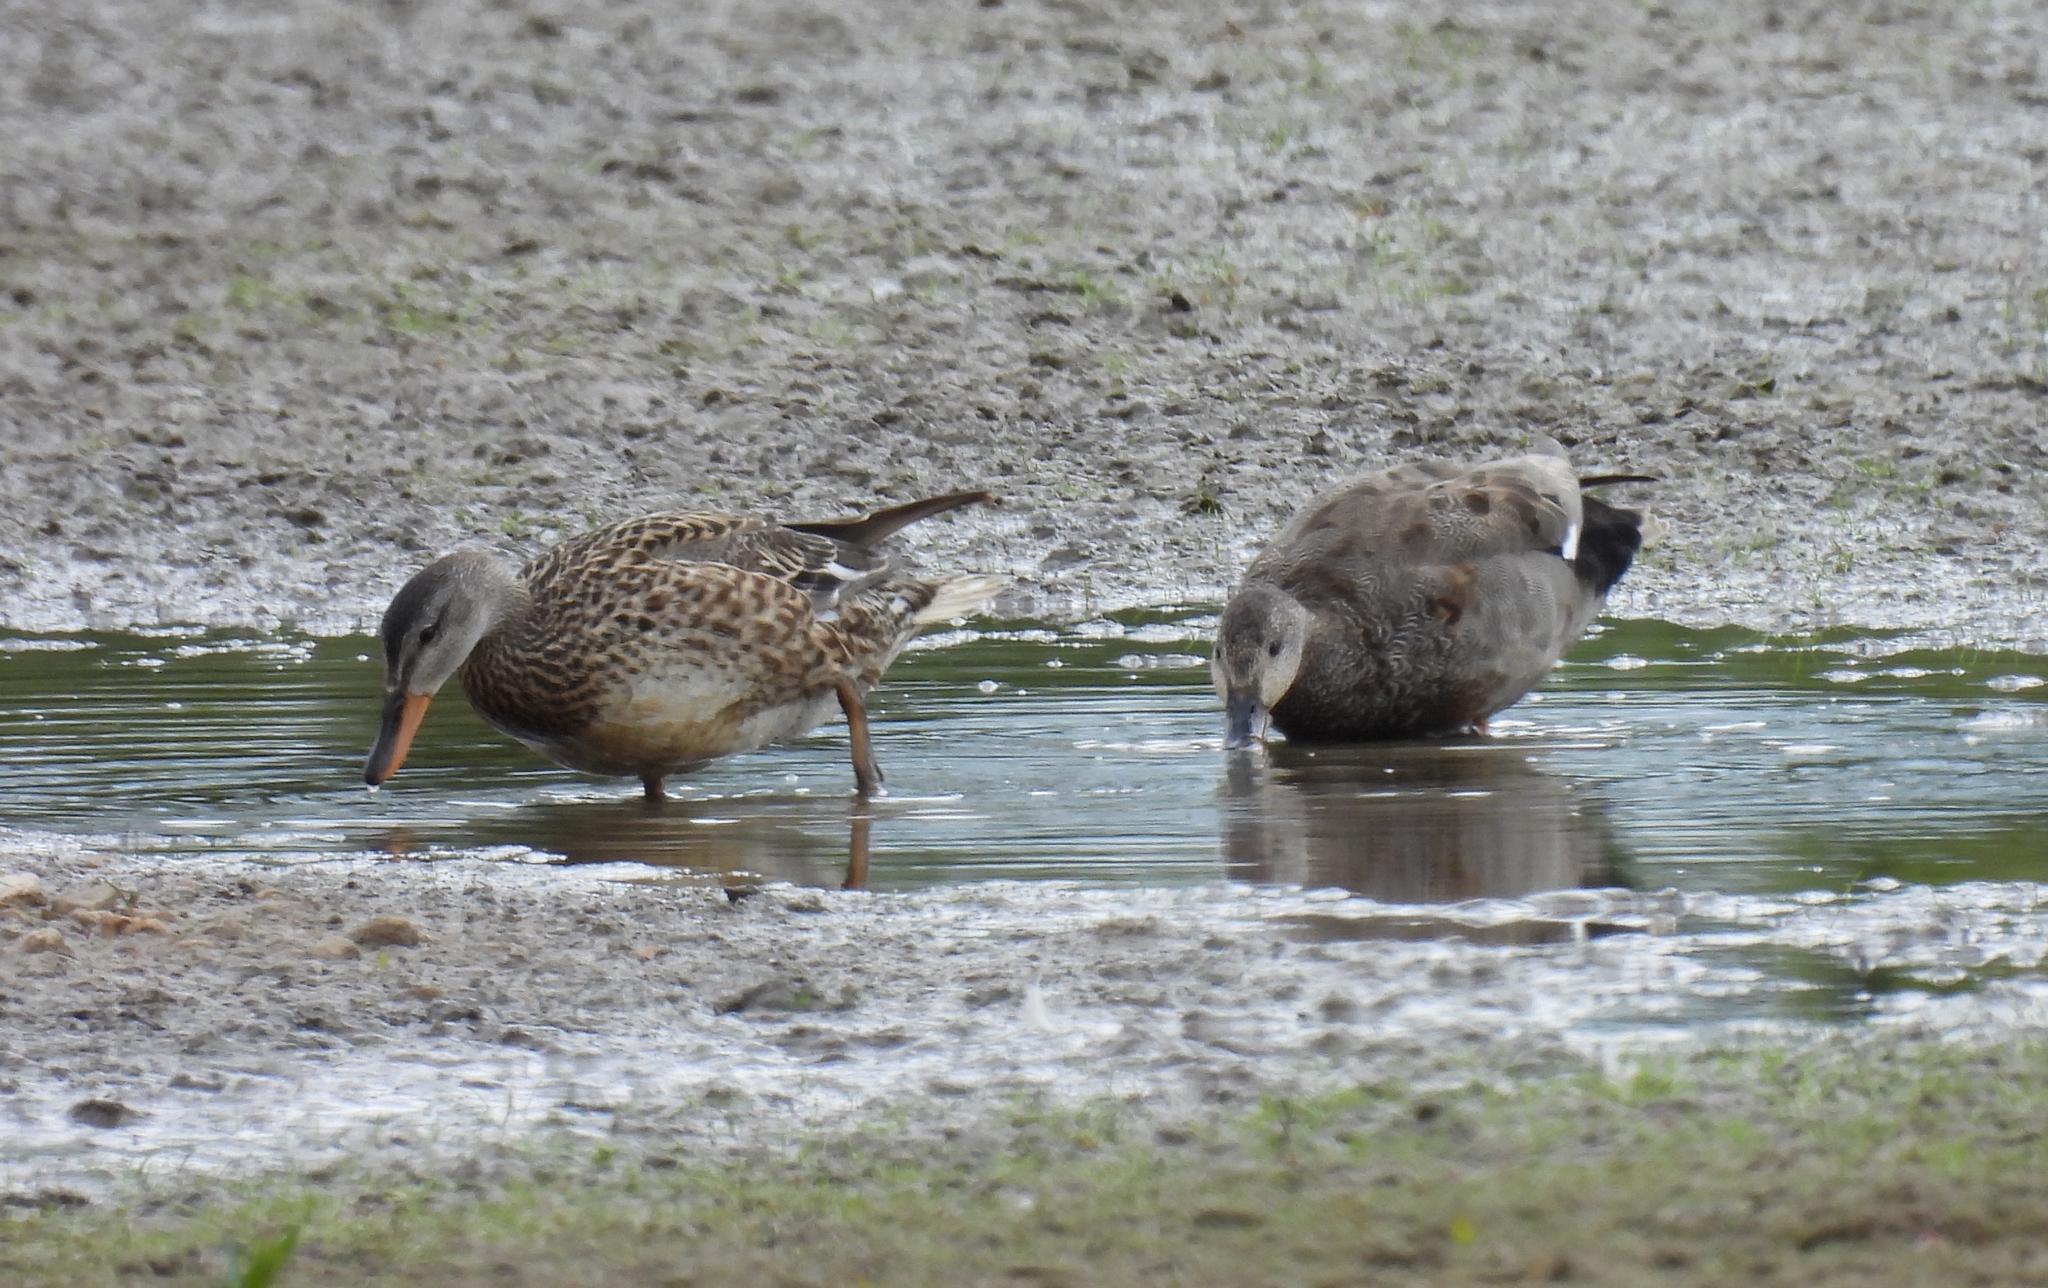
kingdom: Animalia
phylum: Chordata
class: Aves
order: Anseriformes
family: Anatidae
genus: Mareca
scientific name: Mareca strepera
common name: Gadwall
